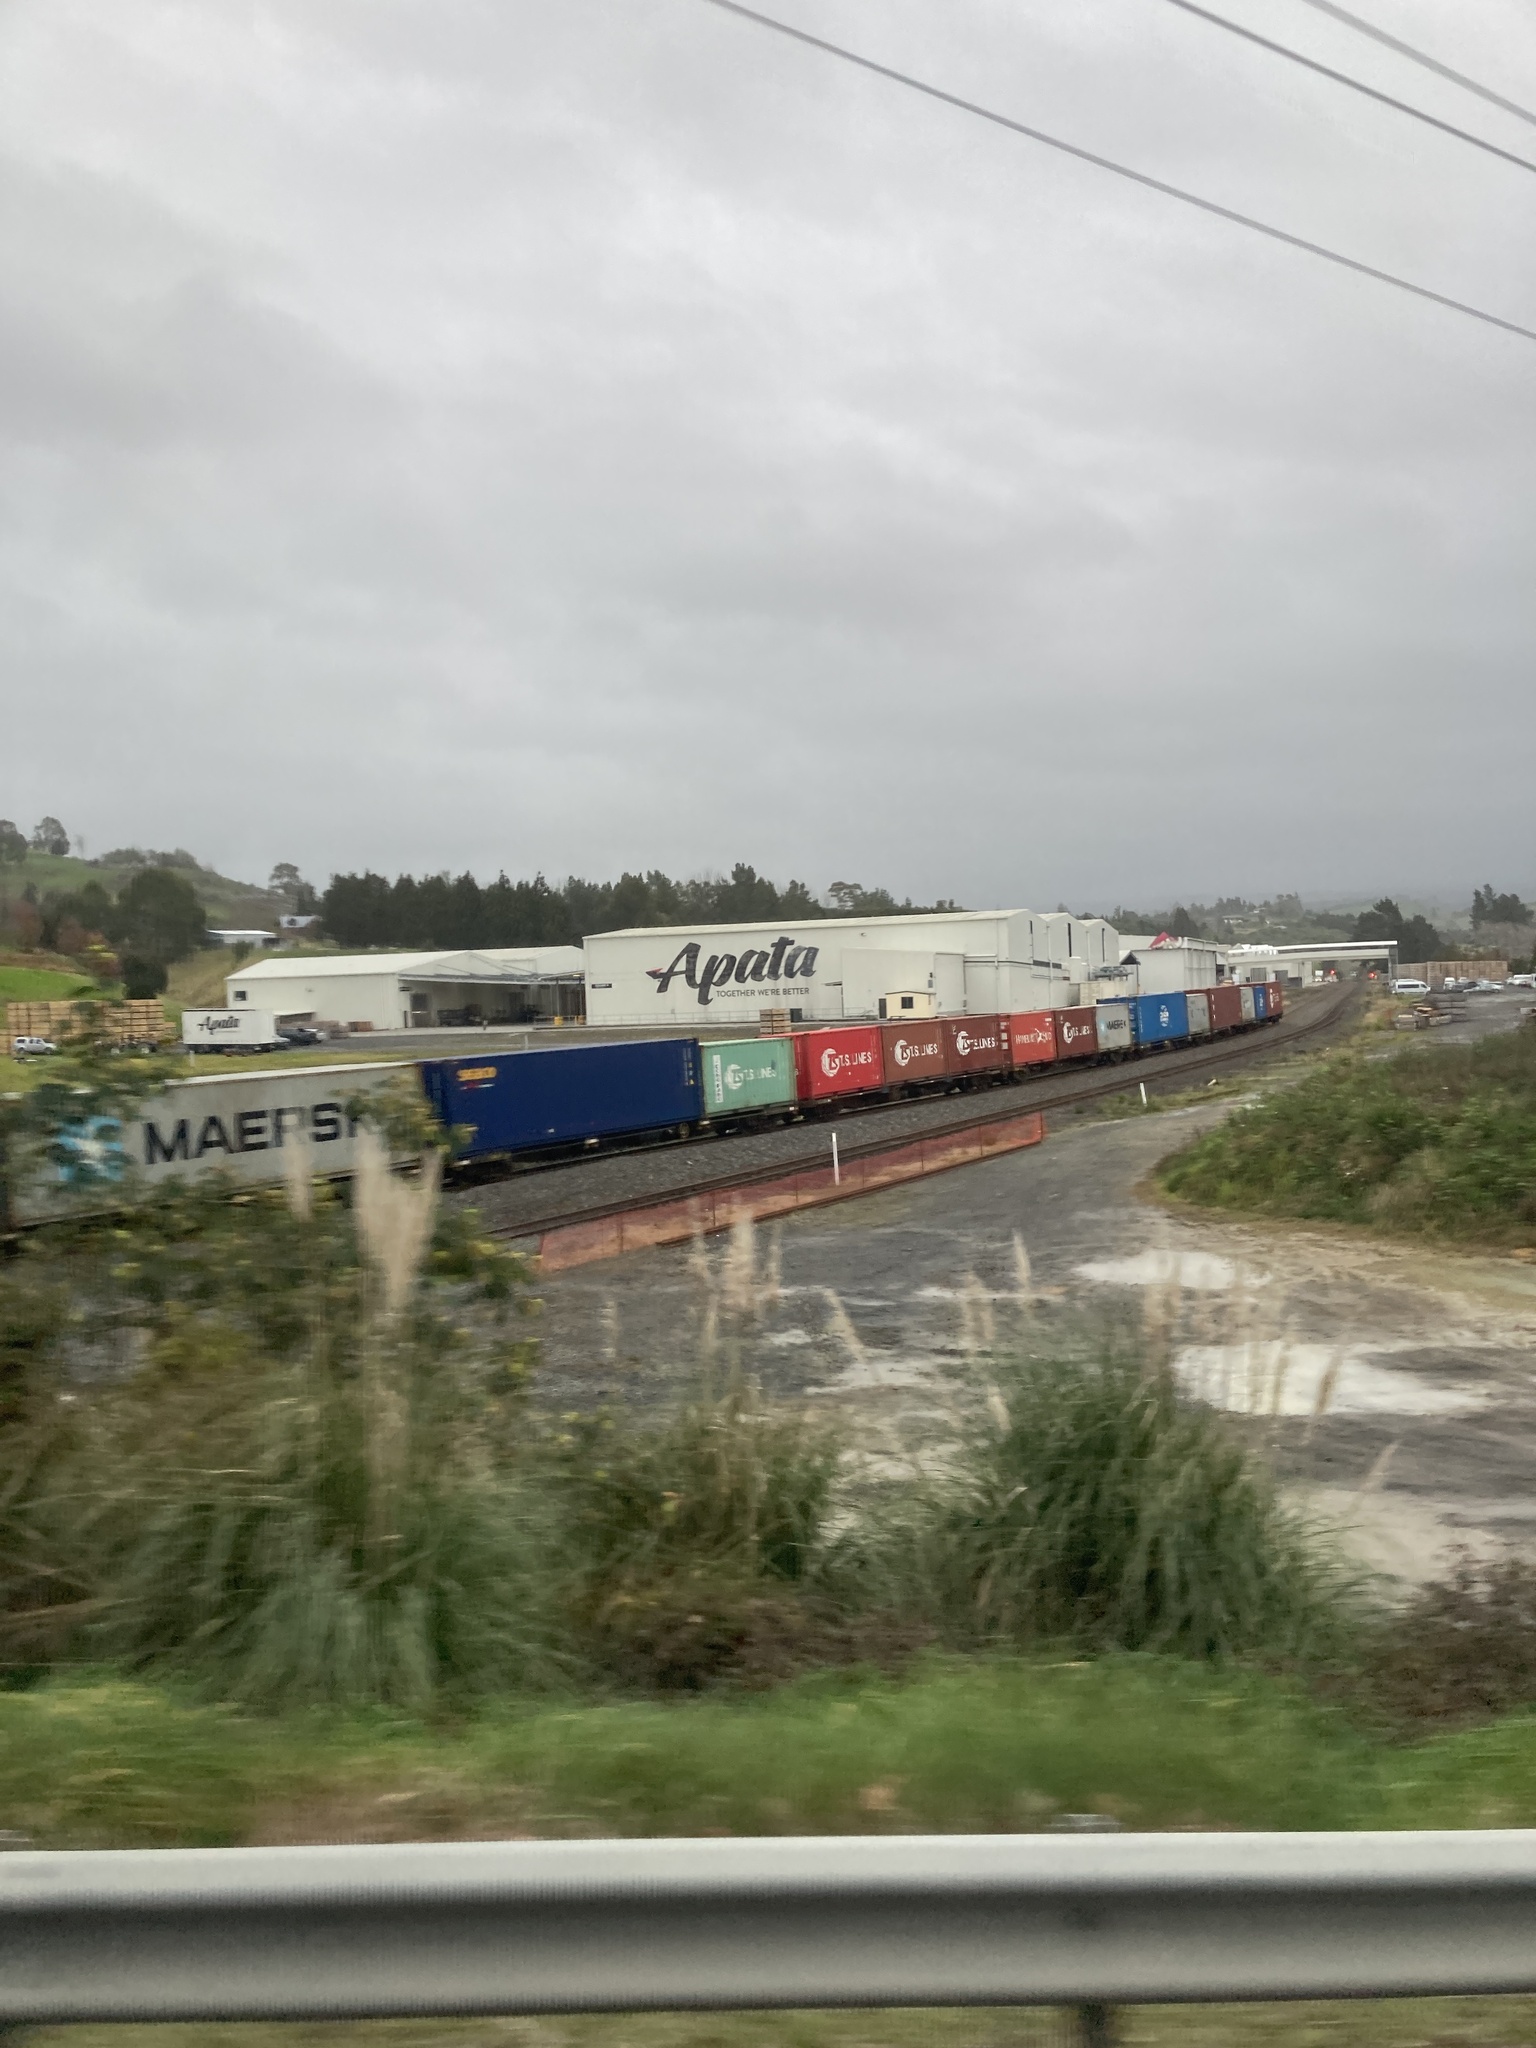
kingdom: Plantae
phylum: Tracheophyta
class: Liliopsida
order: Poales
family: Poaceae
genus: Cortaderia
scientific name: Cortaderia selloana
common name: Uruguayan pampas grass
